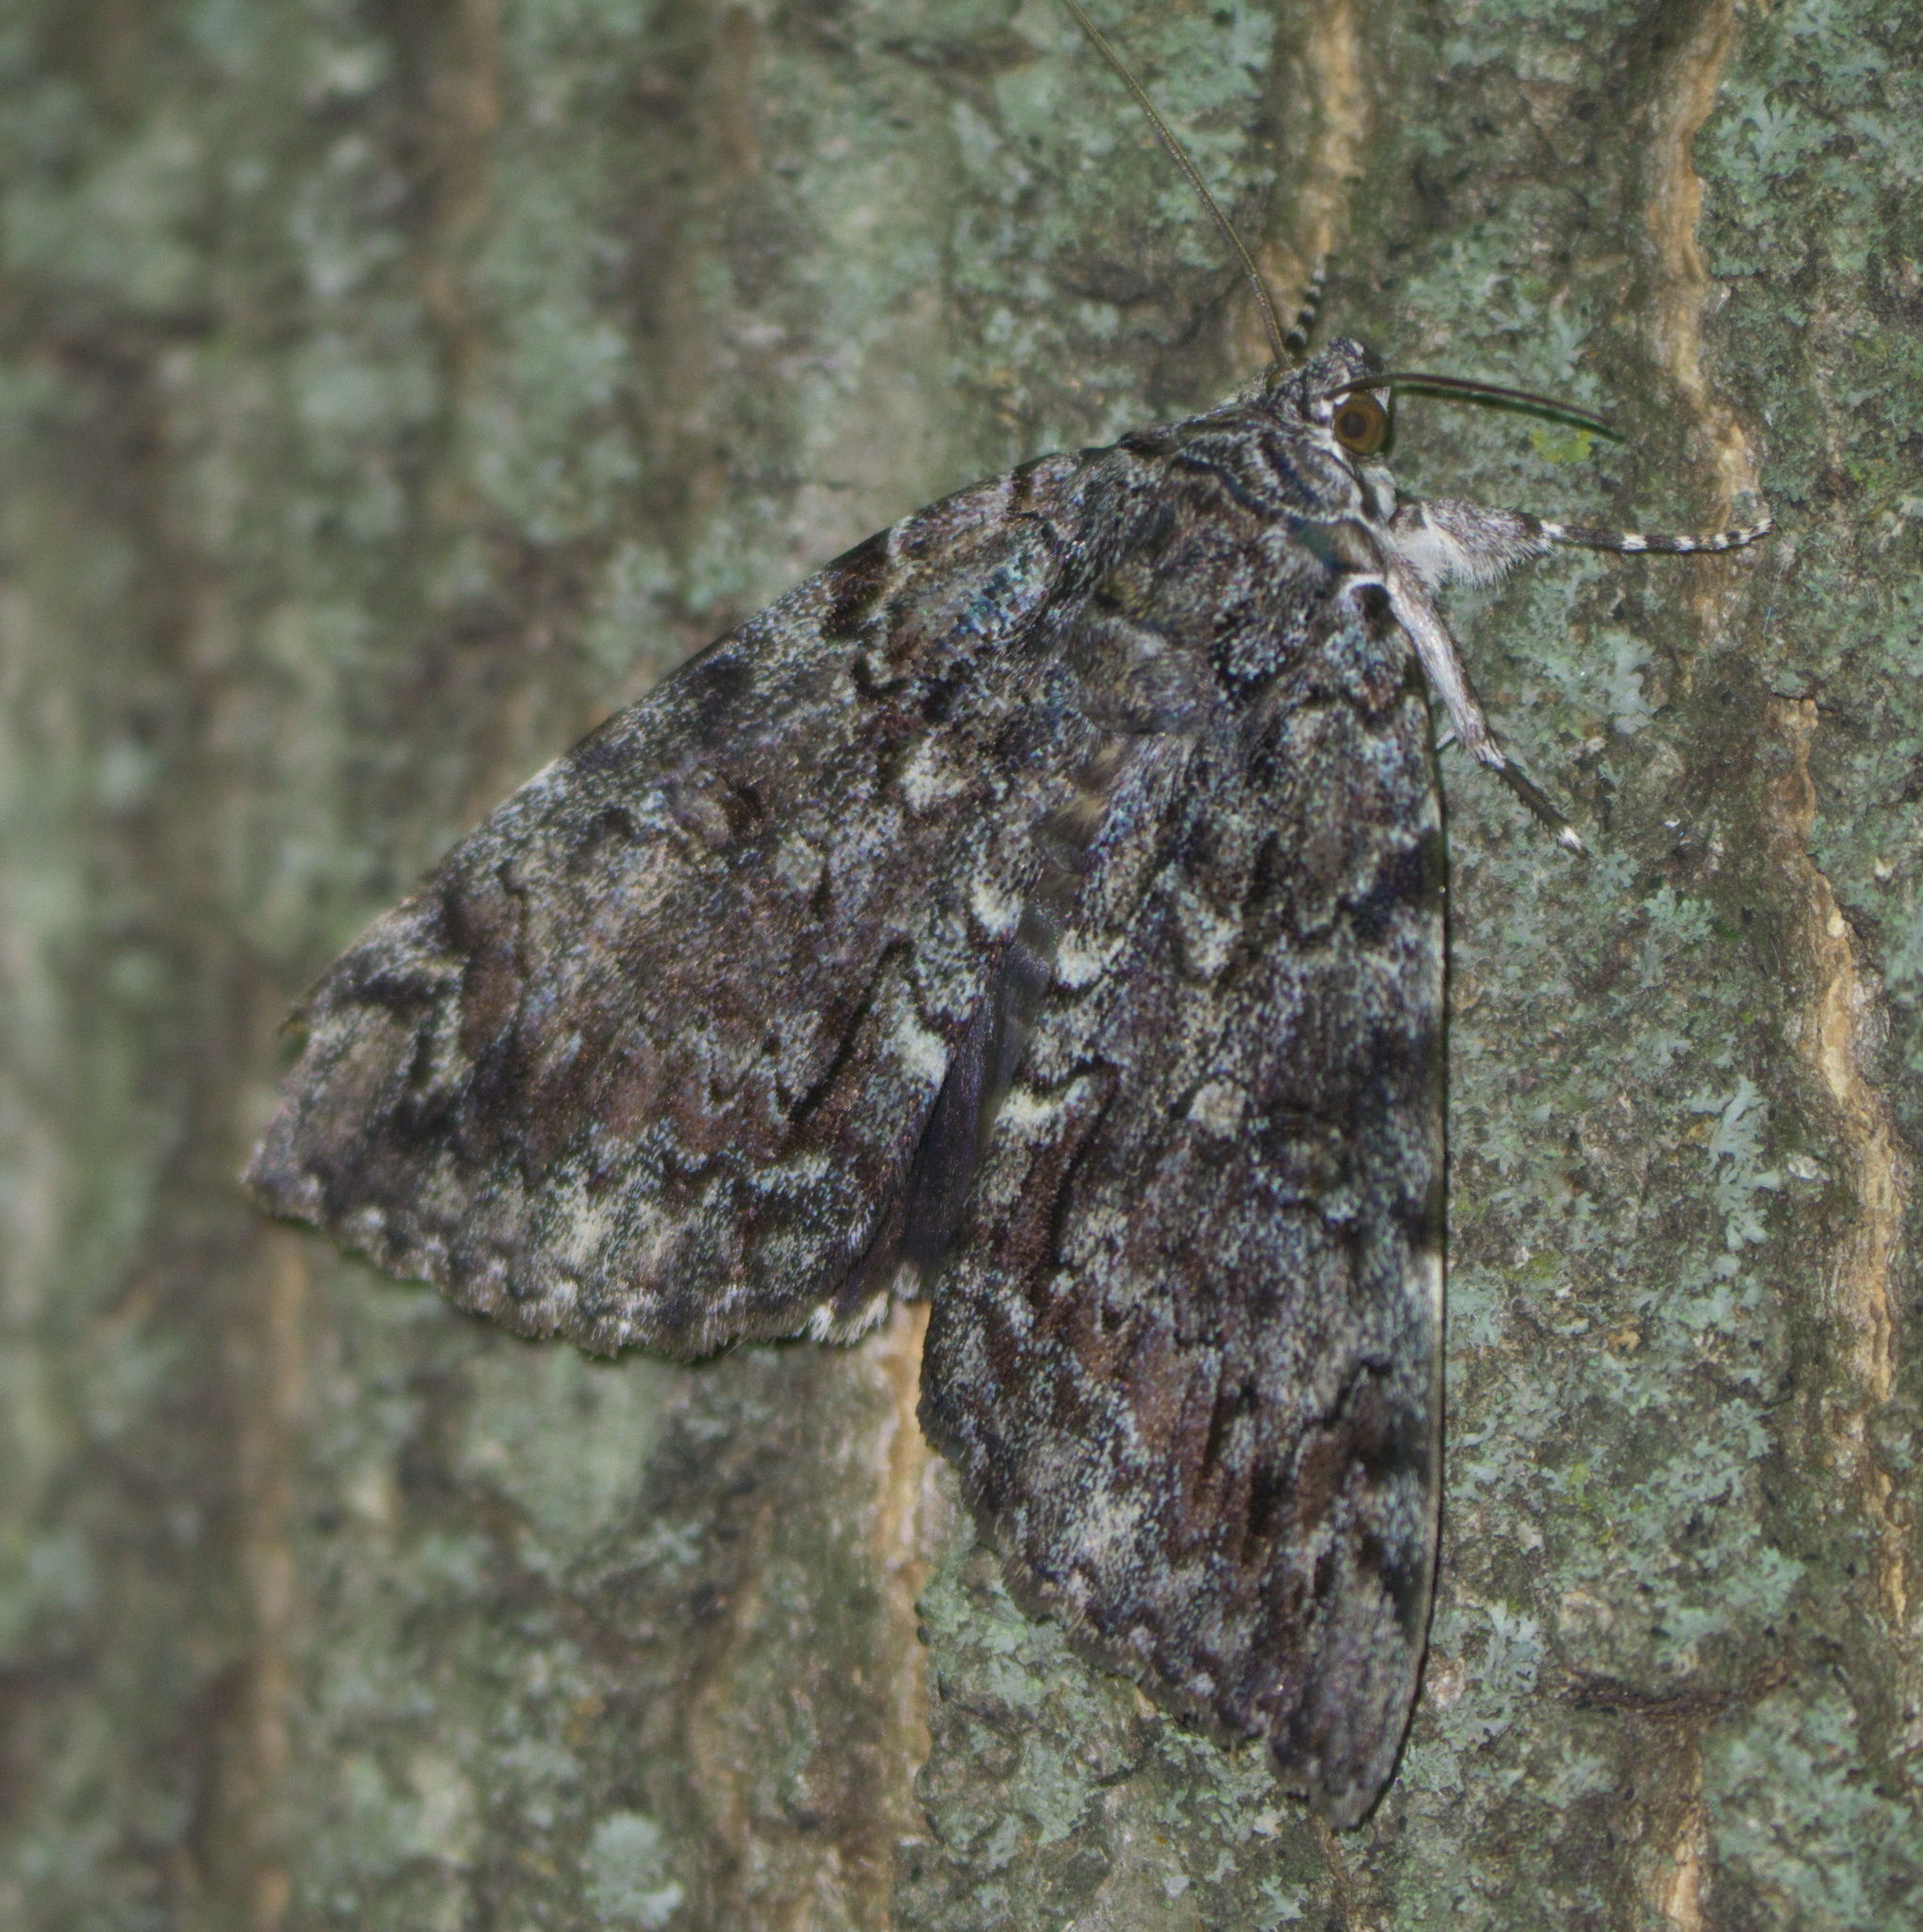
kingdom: Animalia
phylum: Arthropoda
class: Insecta
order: Lepidoptera
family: Erebidae
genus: Catocala
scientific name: Catocala lacrymosa
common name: Tearful underwing
